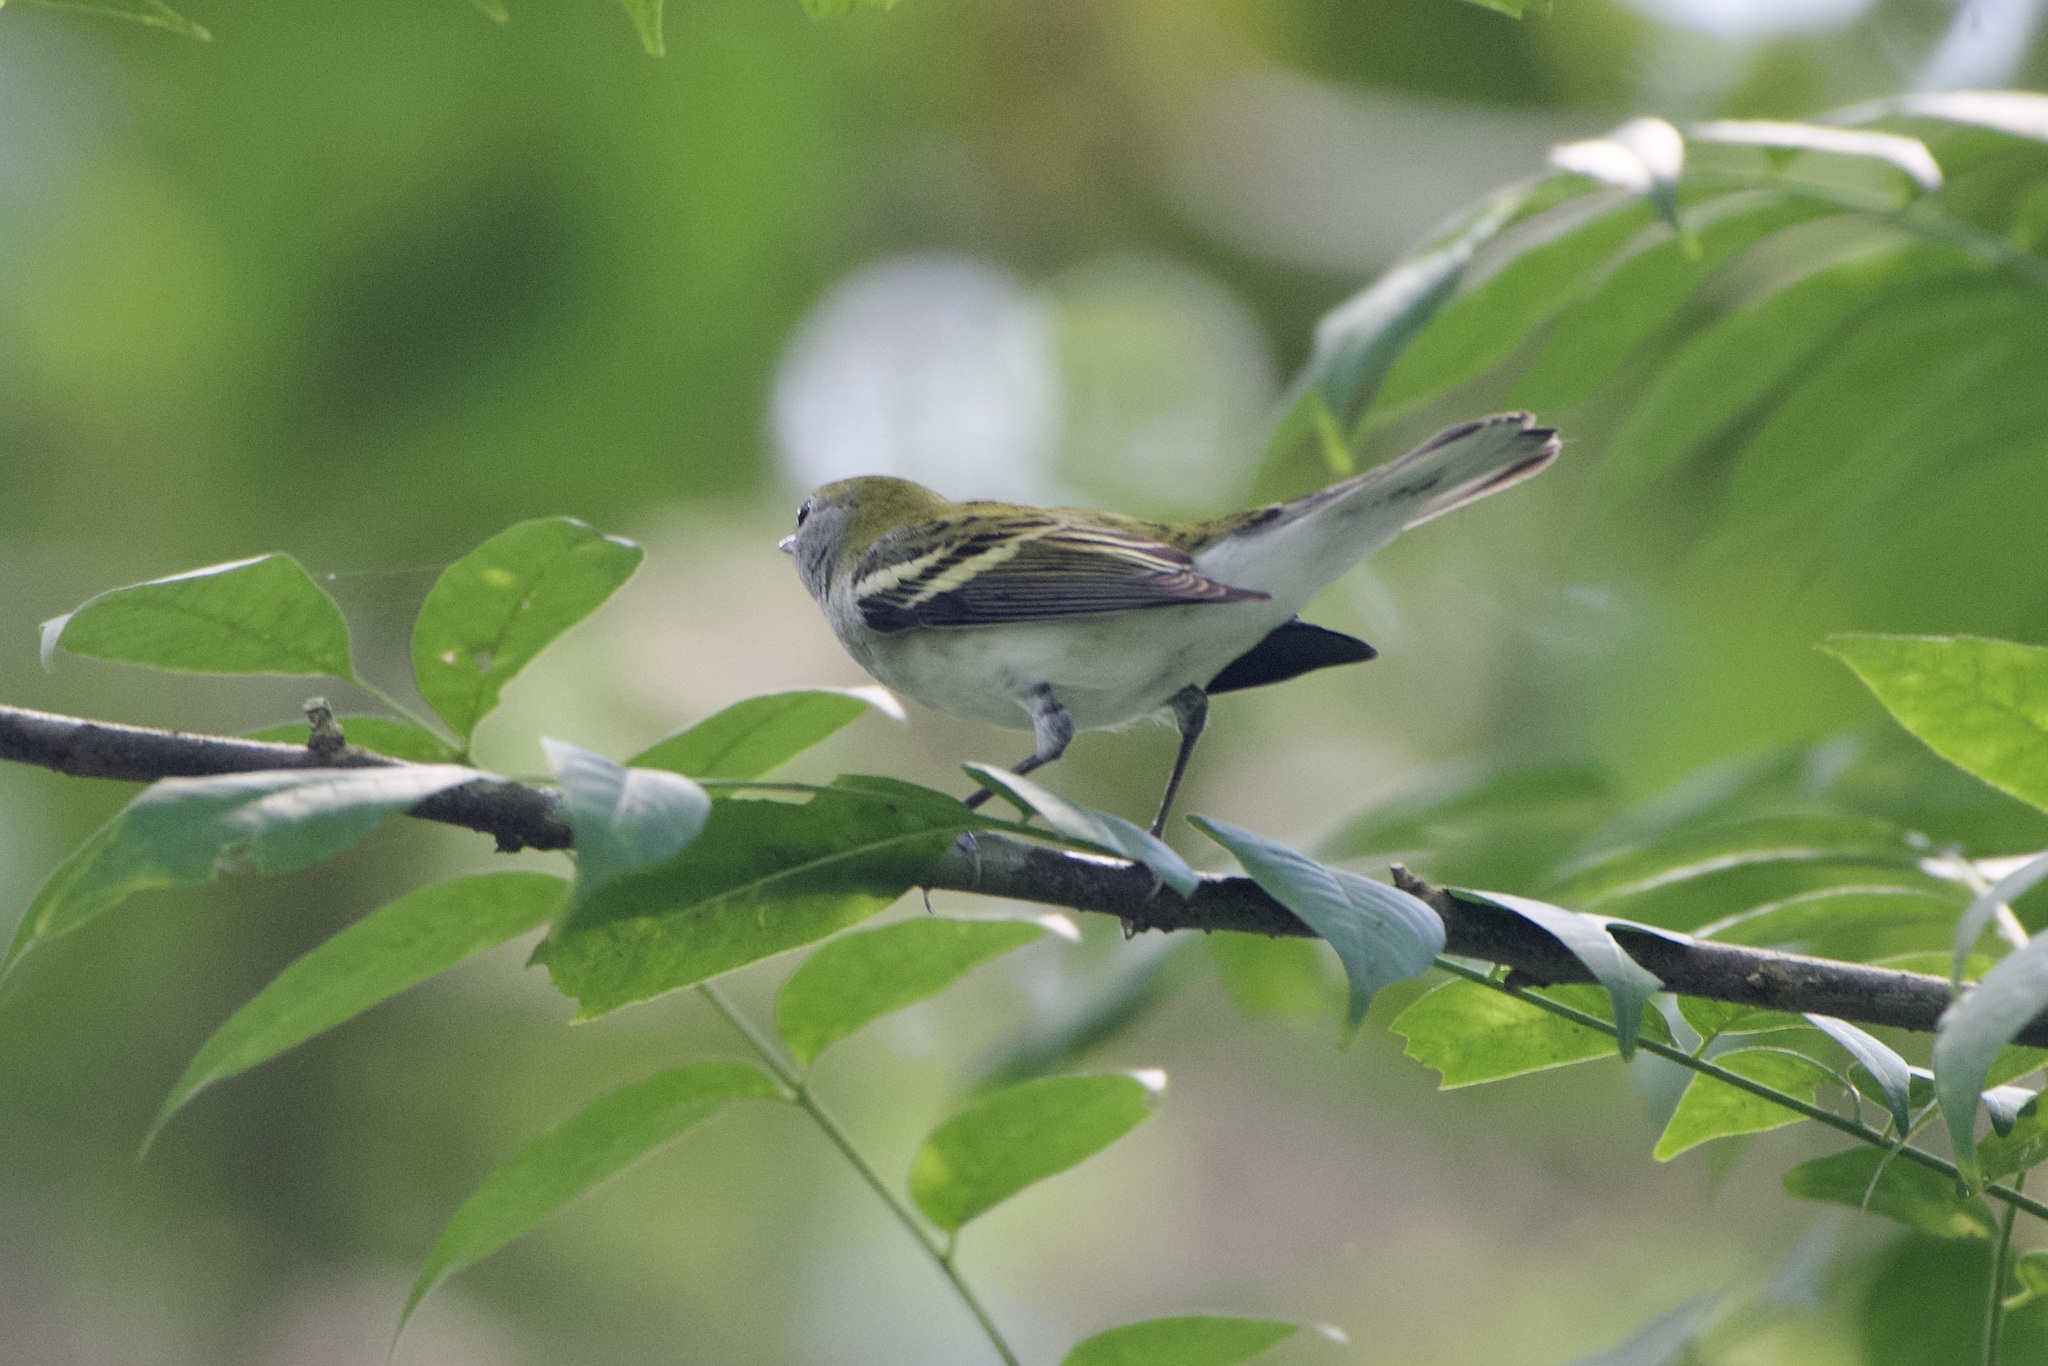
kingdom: Animalia
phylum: Chordata
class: Aves
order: Passeriformes
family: Parulidae
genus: Setophaga
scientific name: Setophaga pensylvanica
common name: Chestnut-sided warbler
